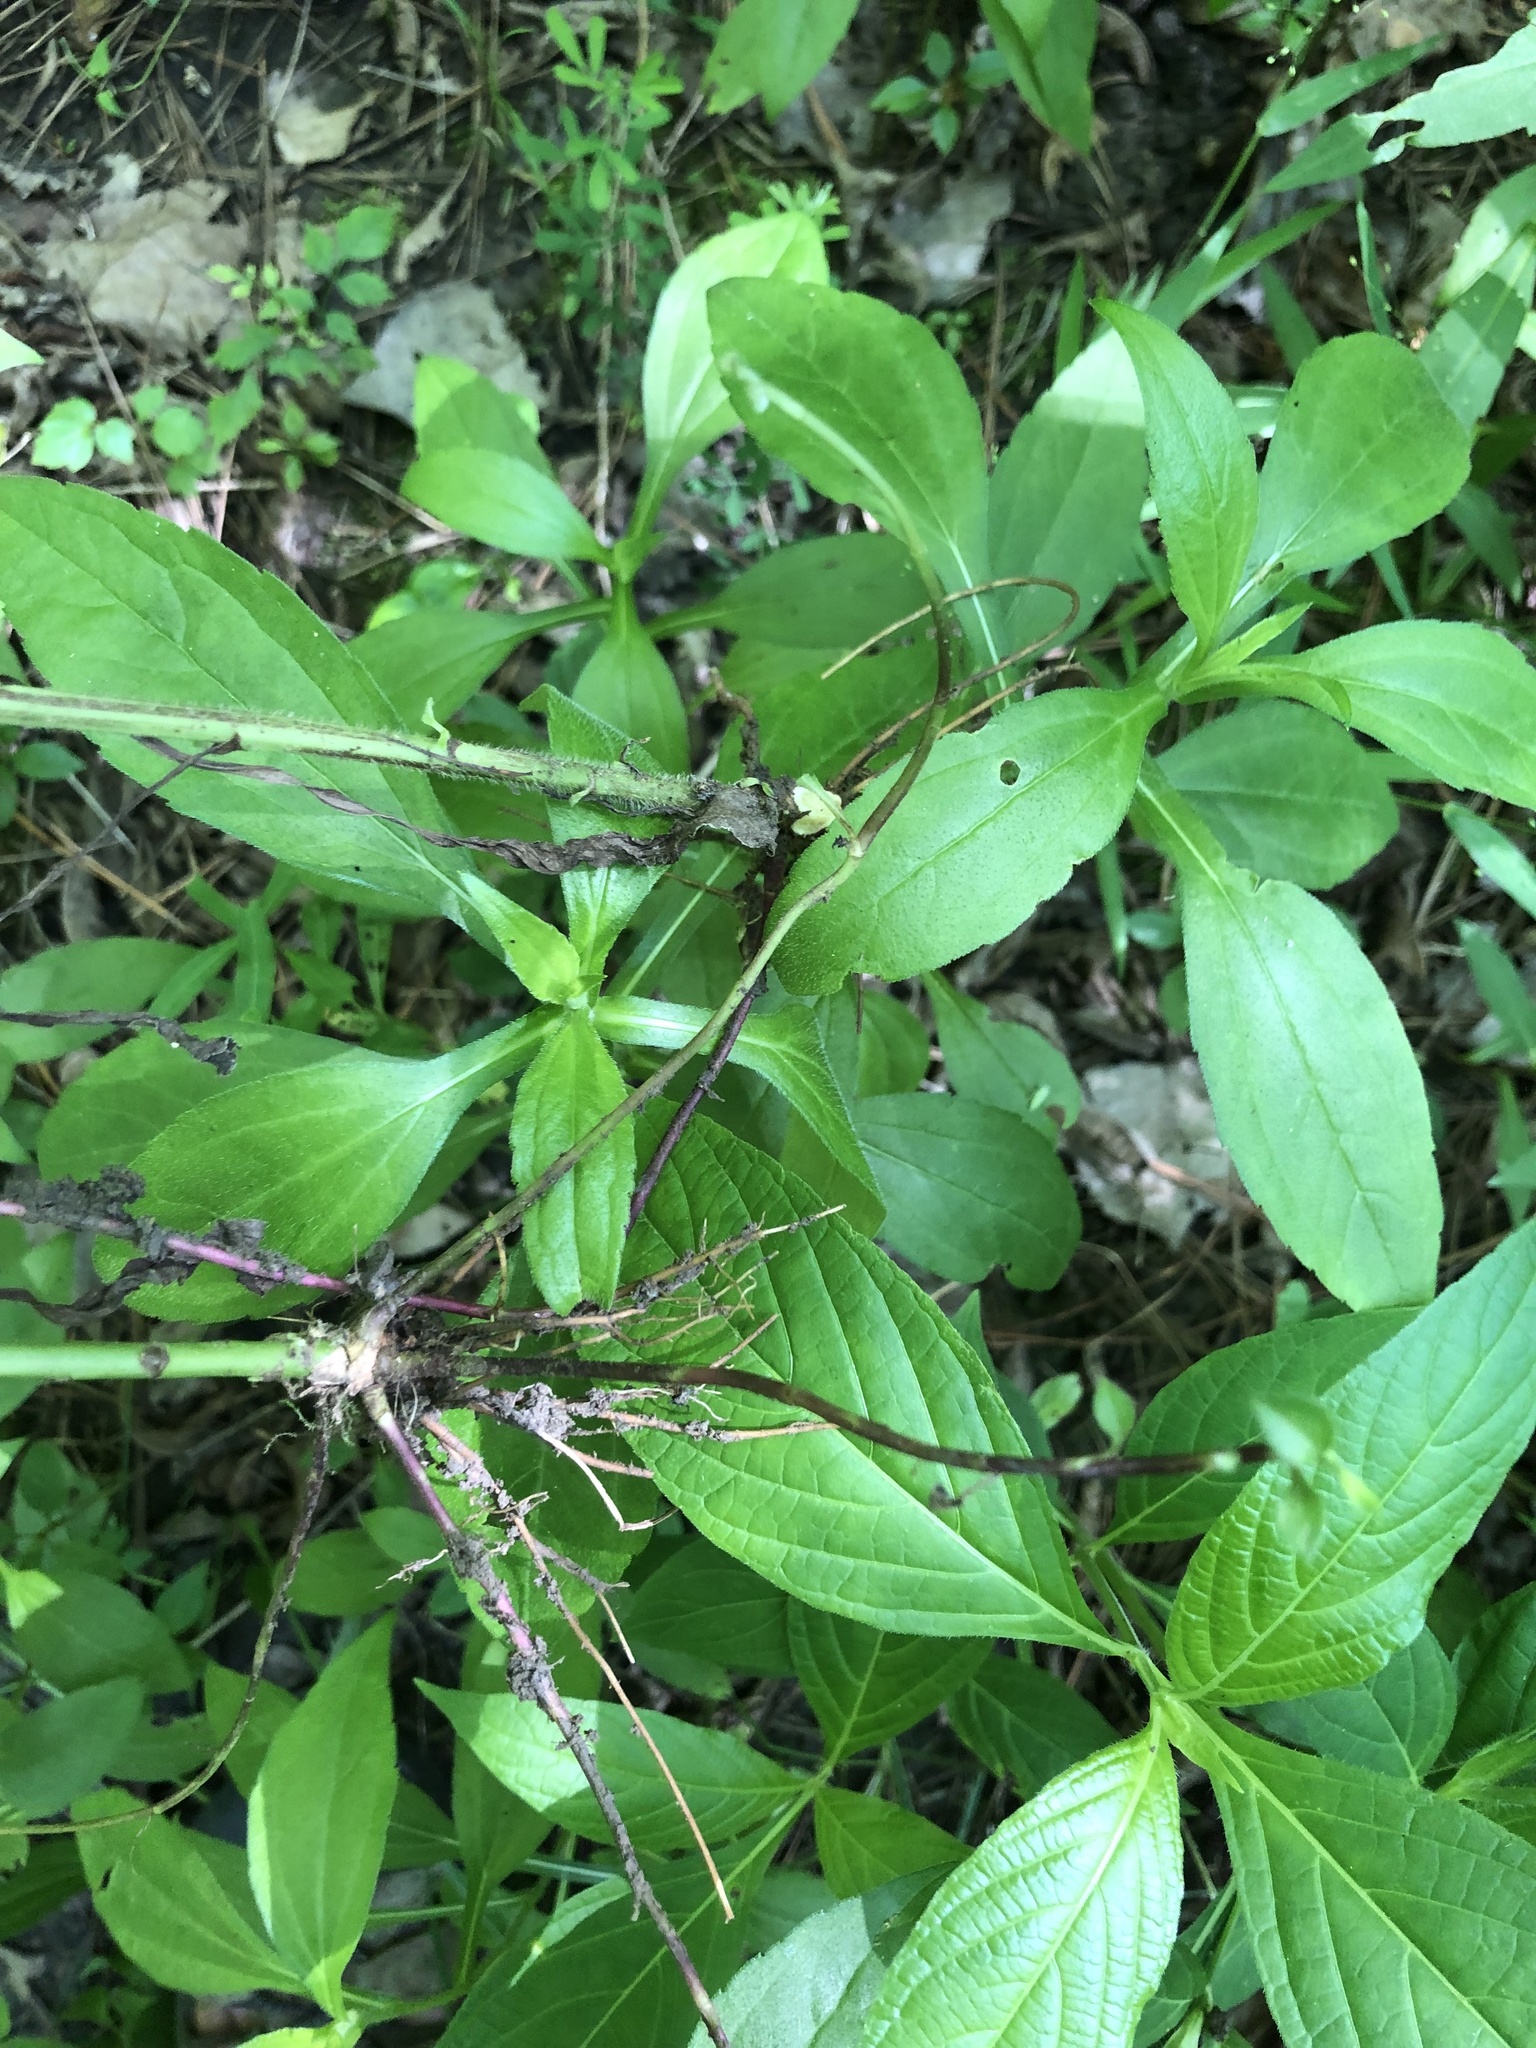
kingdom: Plantae
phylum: Tracheophyta
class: Magnoliopsida
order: Asterales
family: Asteraceae
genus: Rudbeckia
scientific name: Rudbeckia terranigrae
